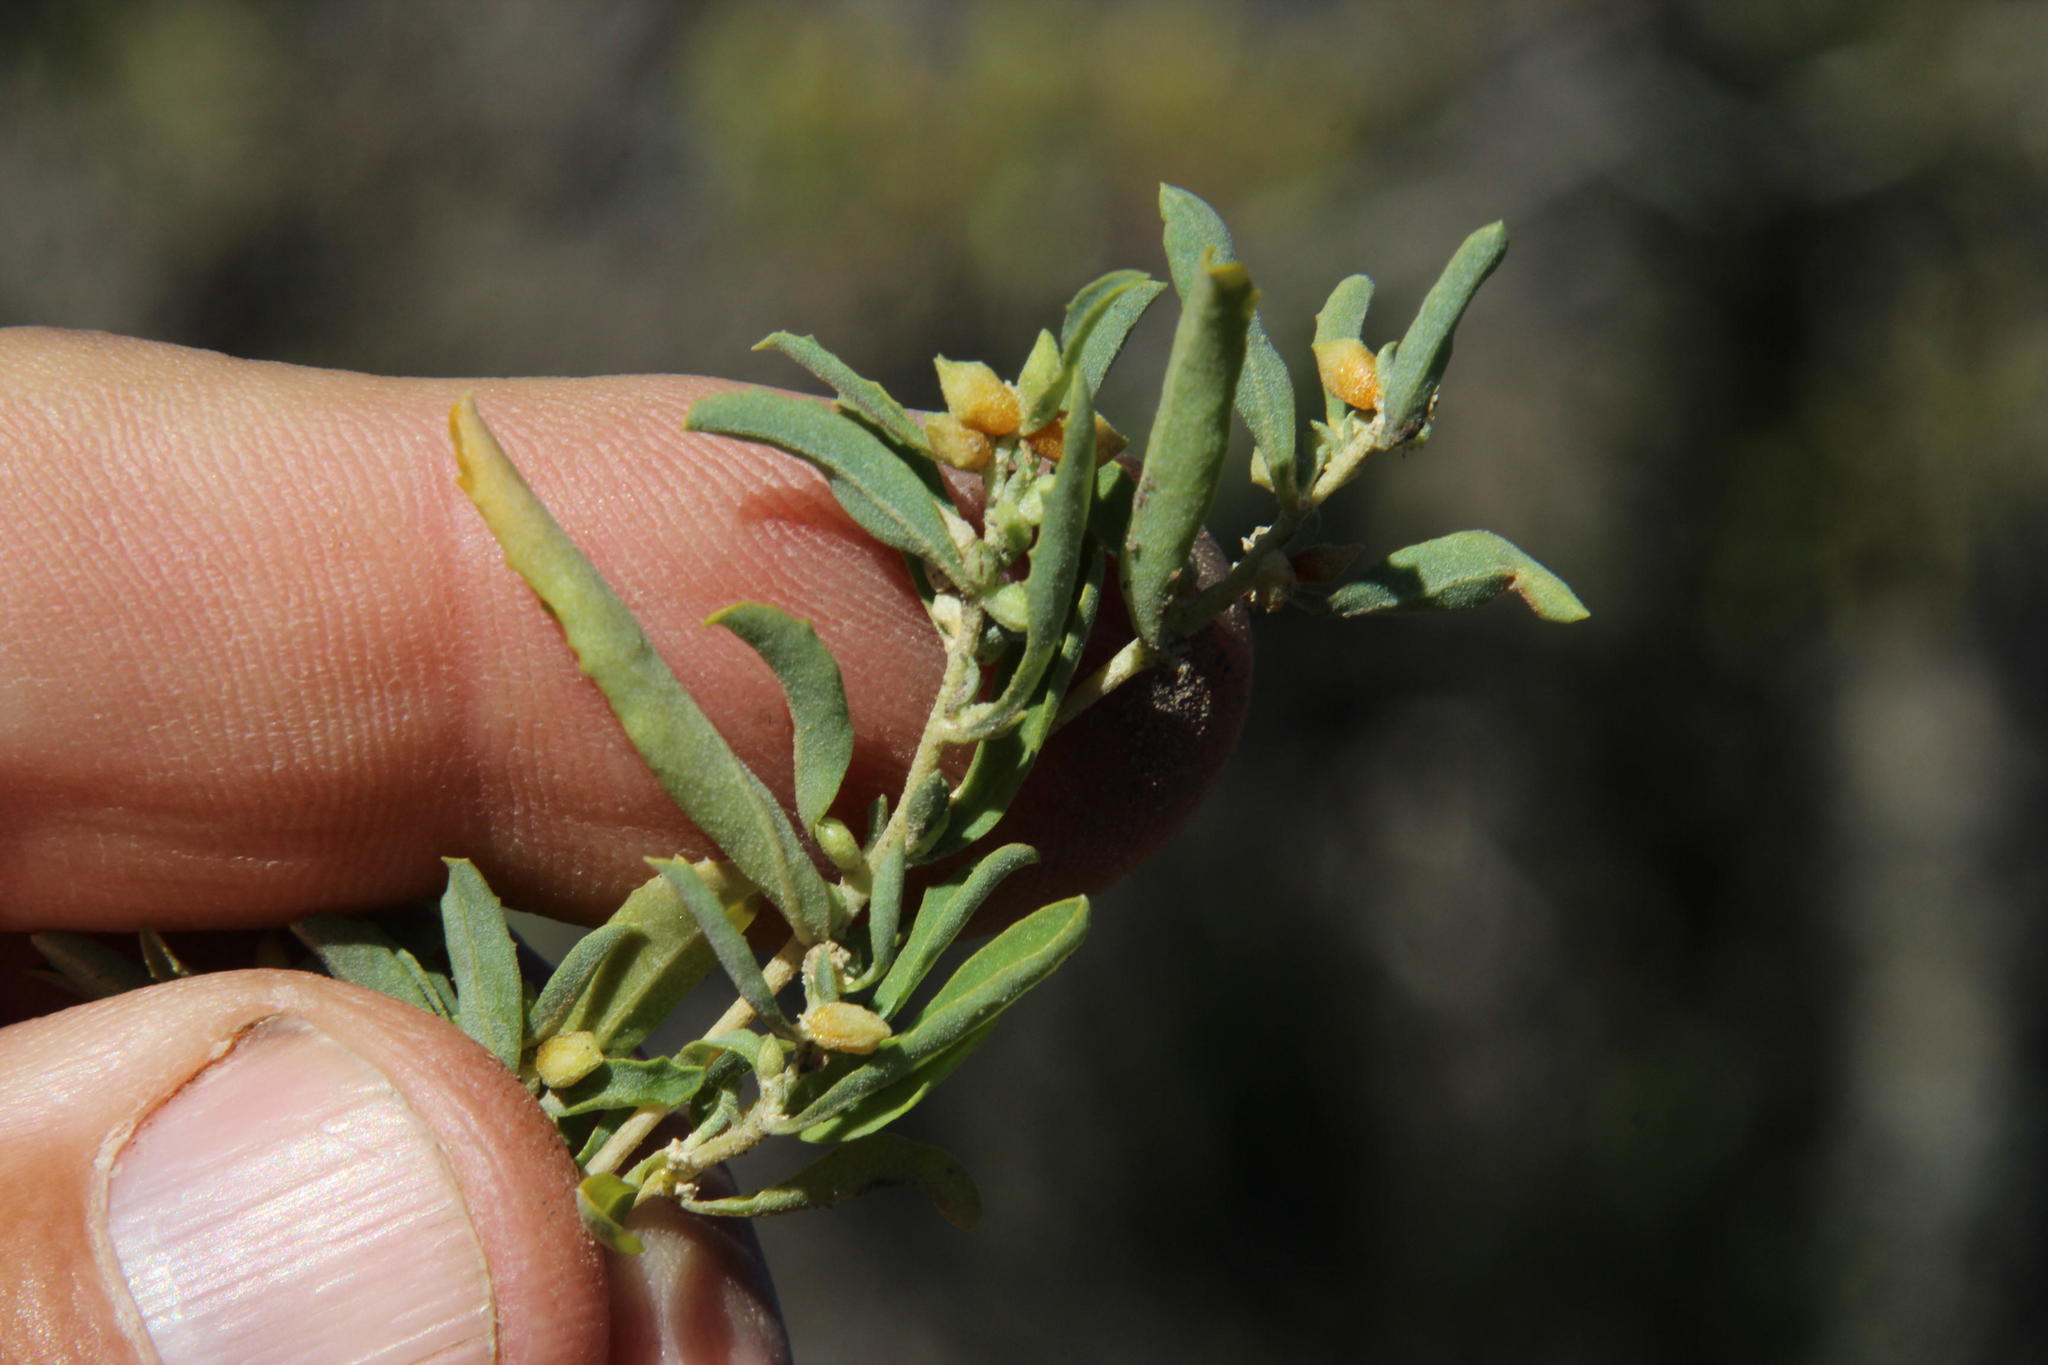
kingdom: Plantae
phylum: Tracheophyta
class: Magnoliopsida
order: Caryophyllales
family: Amaranthaceae
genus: Atriplex
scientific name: Atriplex semibaccata
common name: Australian saltbush
